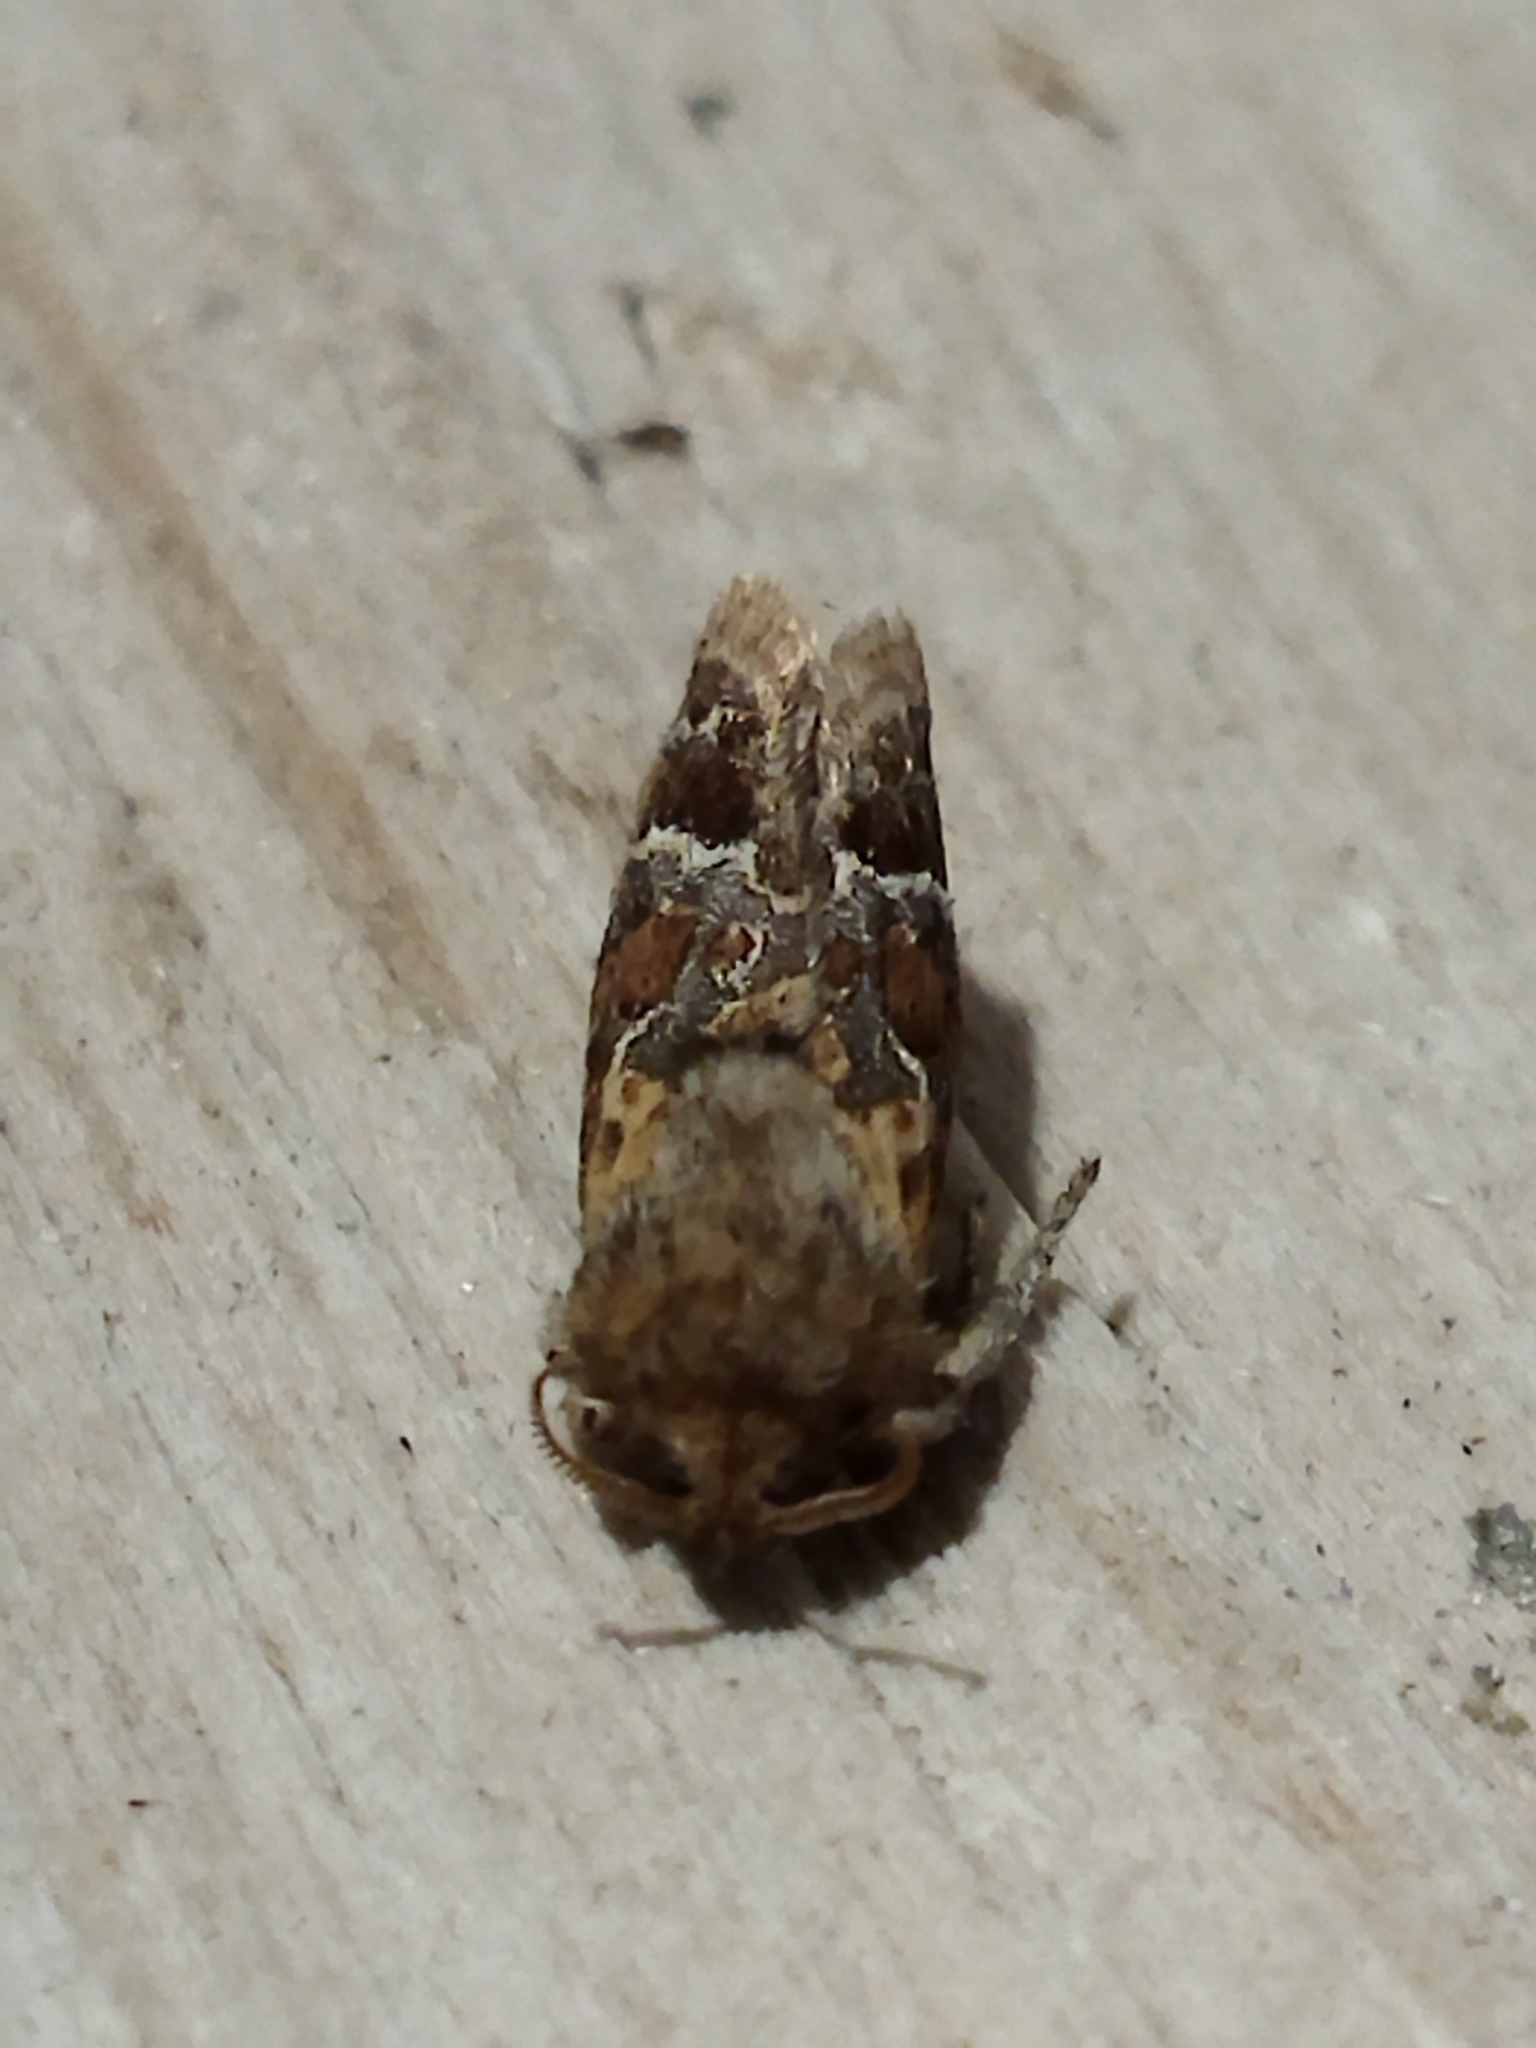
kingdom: Animalia
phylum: Arthropoda
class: Insecta
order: Lepidoptera
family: Hepialidae
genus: Triodia
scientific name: Triodia amasinus
